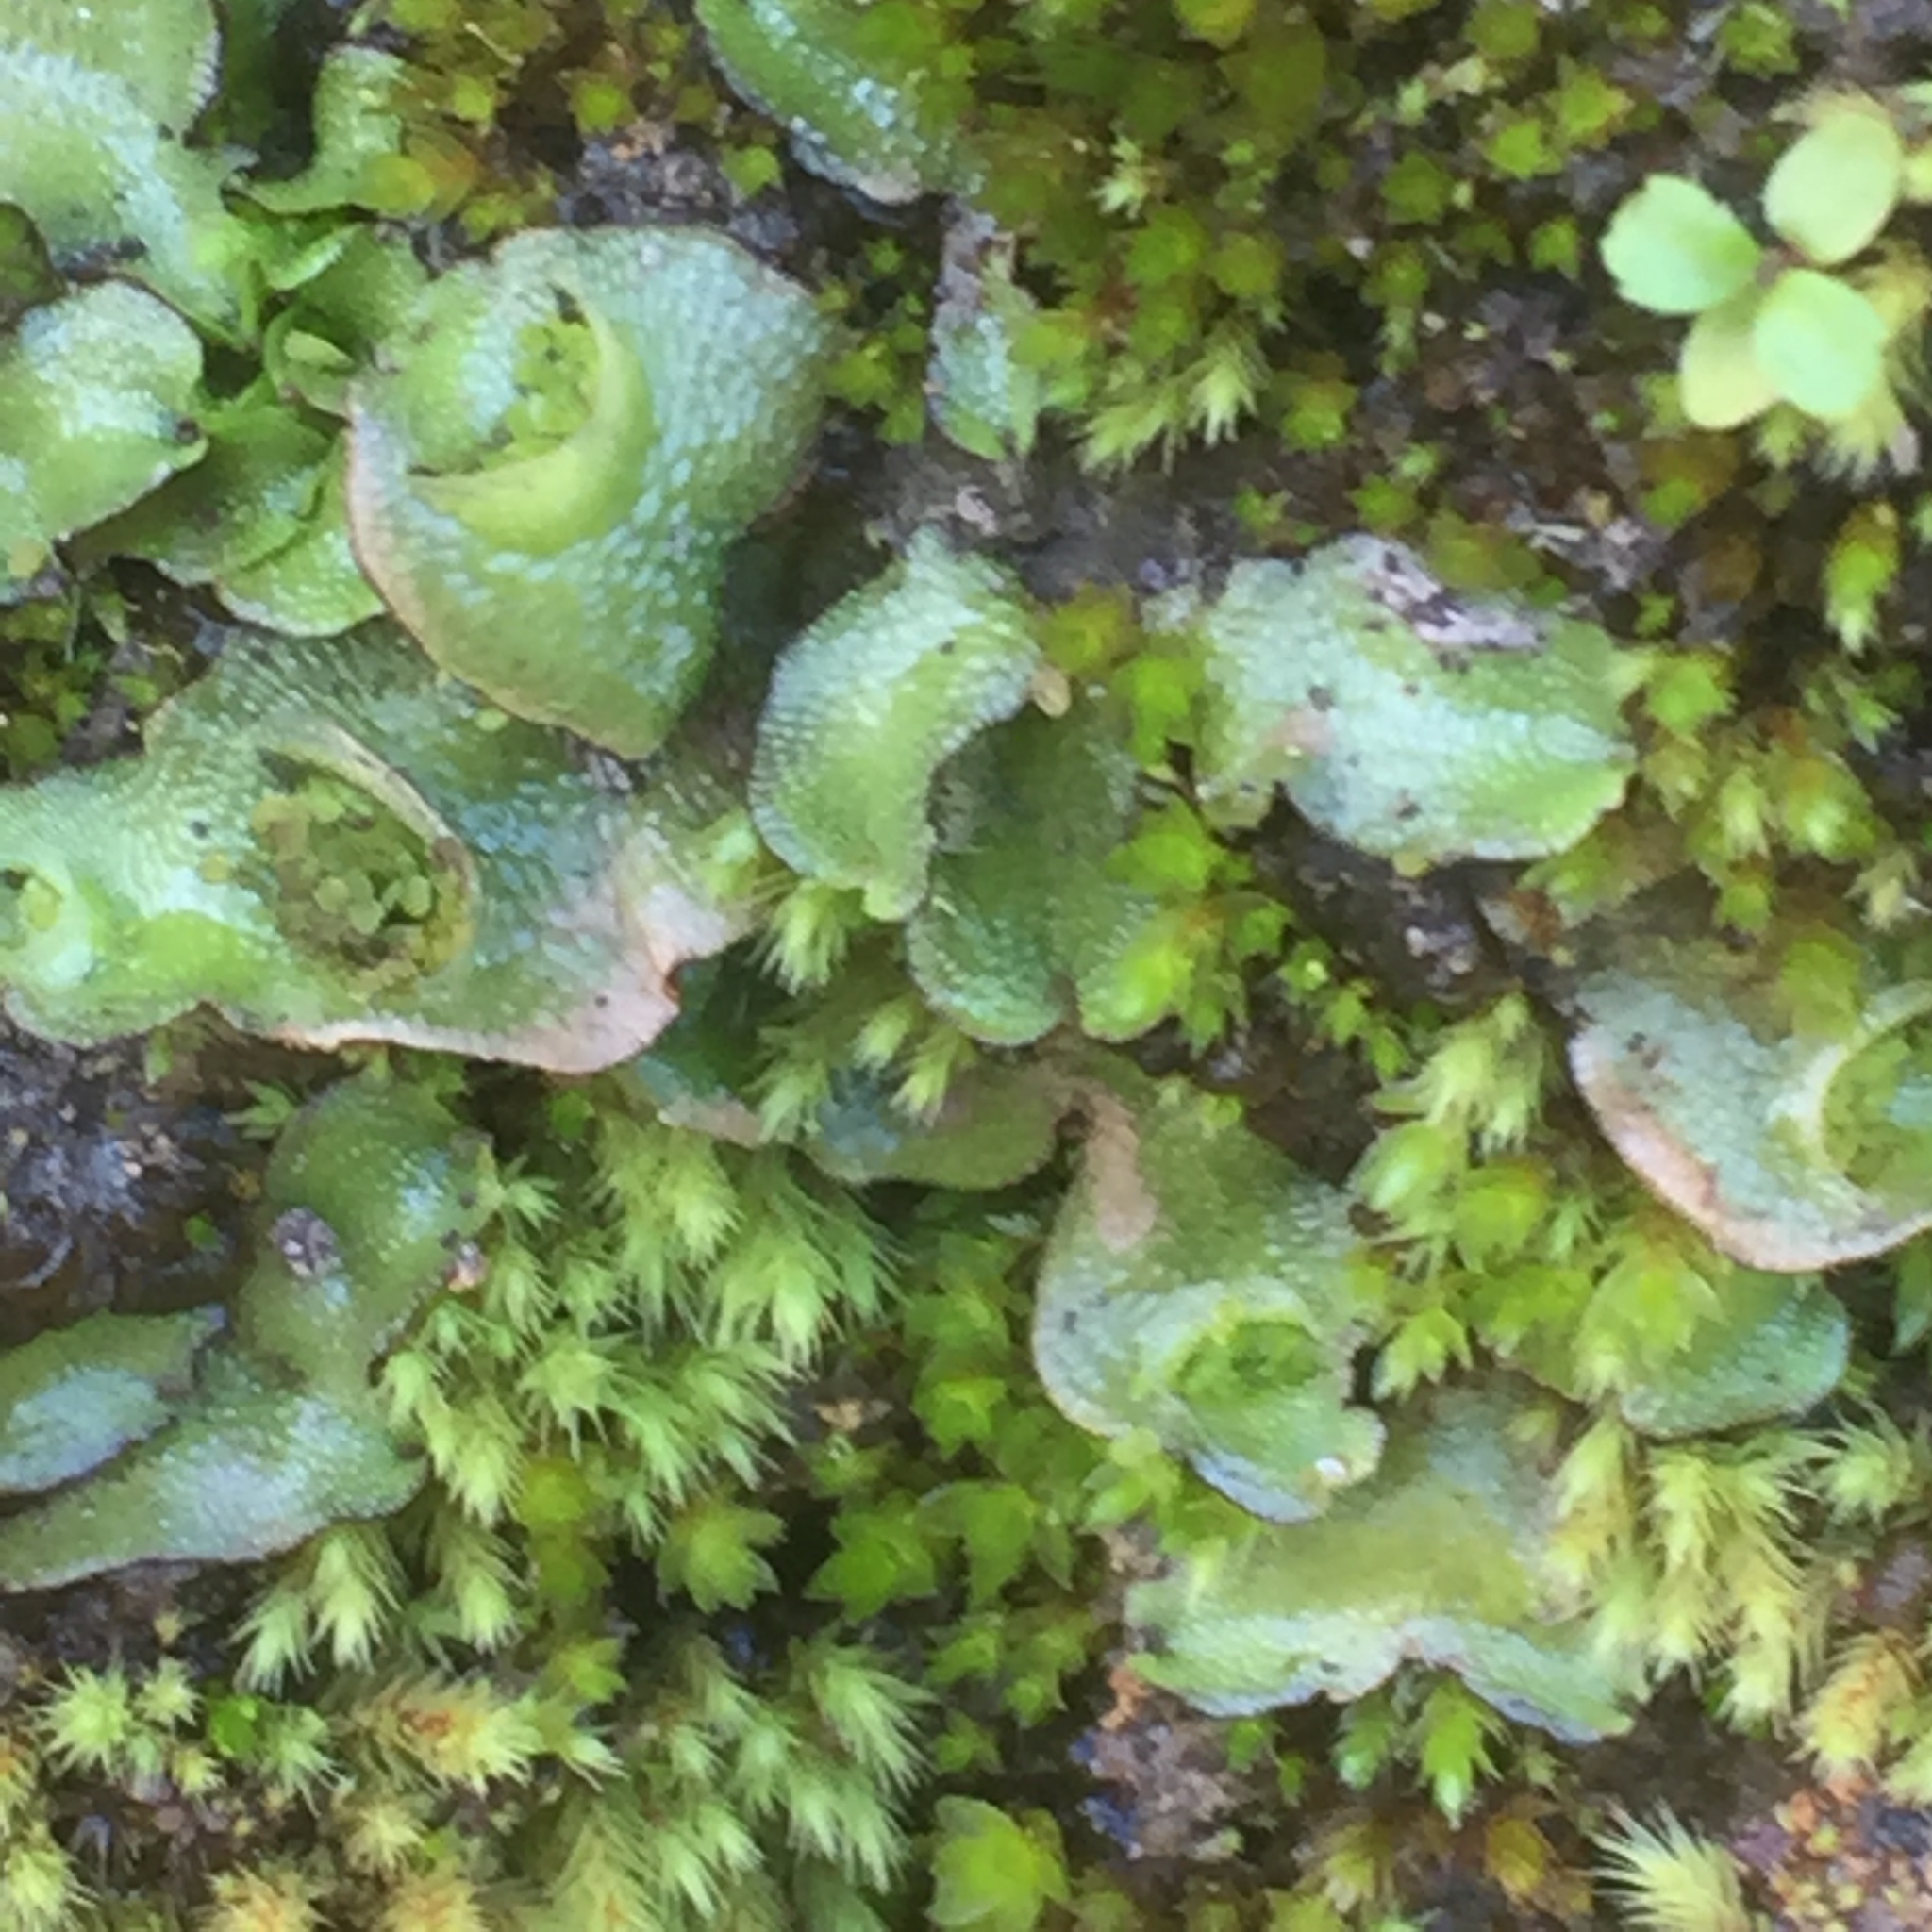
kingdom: Plantae
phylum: Marchantiophyta
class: Marchantiopsida
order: Lunulariales
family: Lunulariaceae
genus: Lunularia
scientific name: Lunularia cruciata
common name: Crescent-cup liverwort
